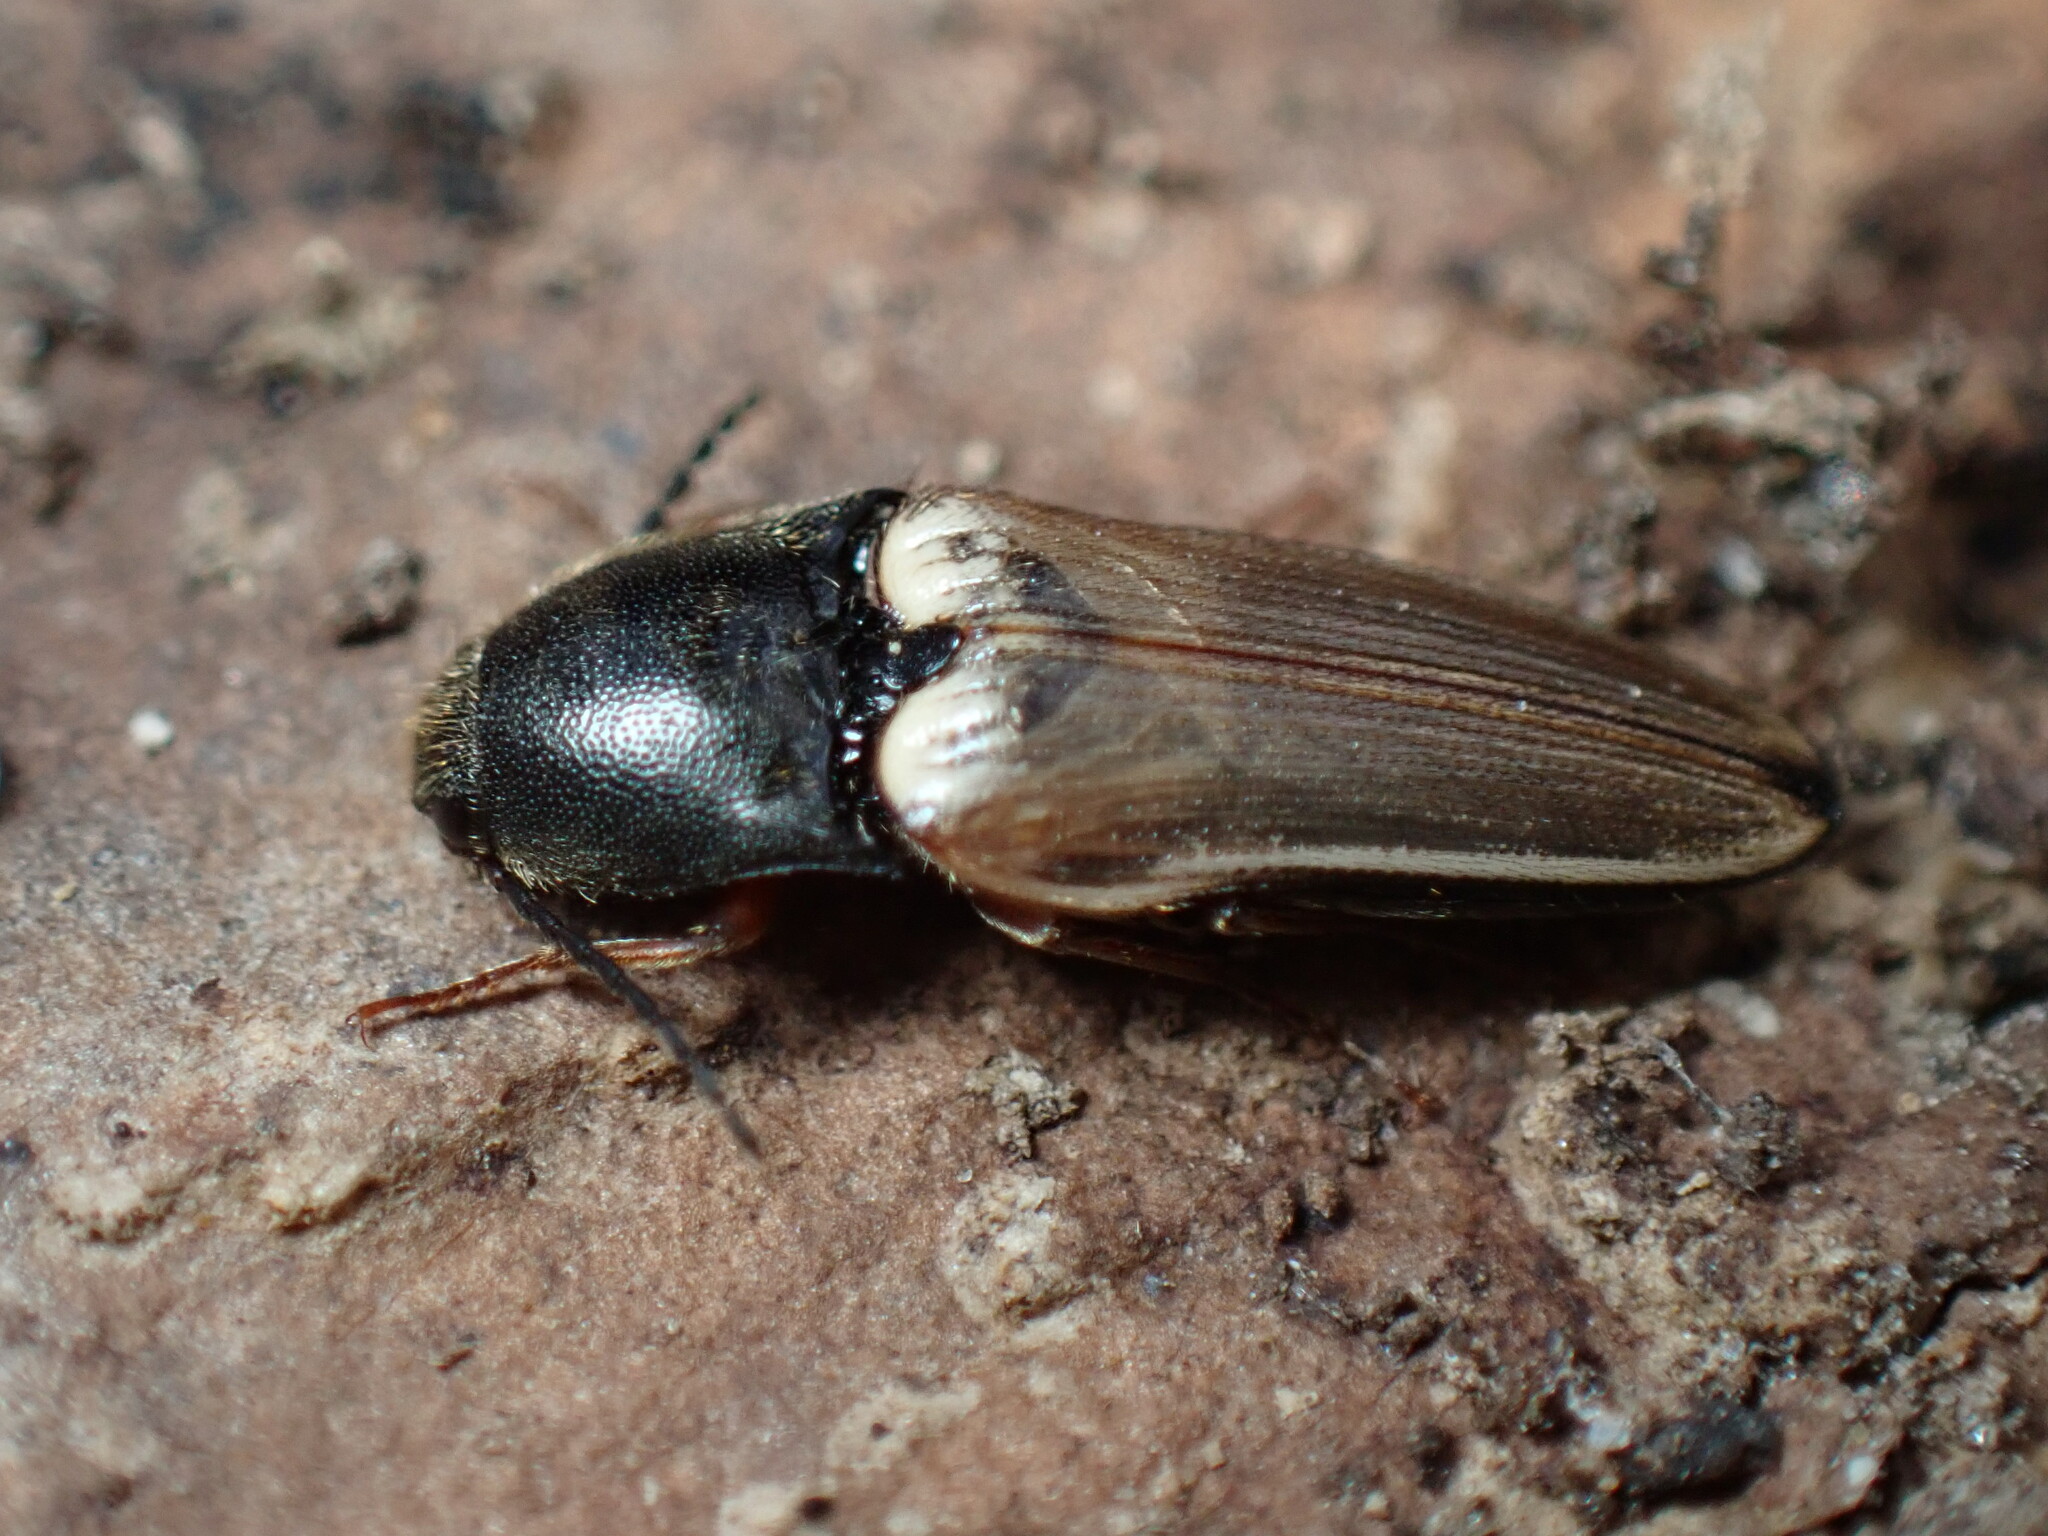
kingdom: Animalia
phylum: Arthropoda
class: Insecta
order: Coleoptera
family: Elateridae
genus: Ampedus
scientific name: Ampedus nigricollis
